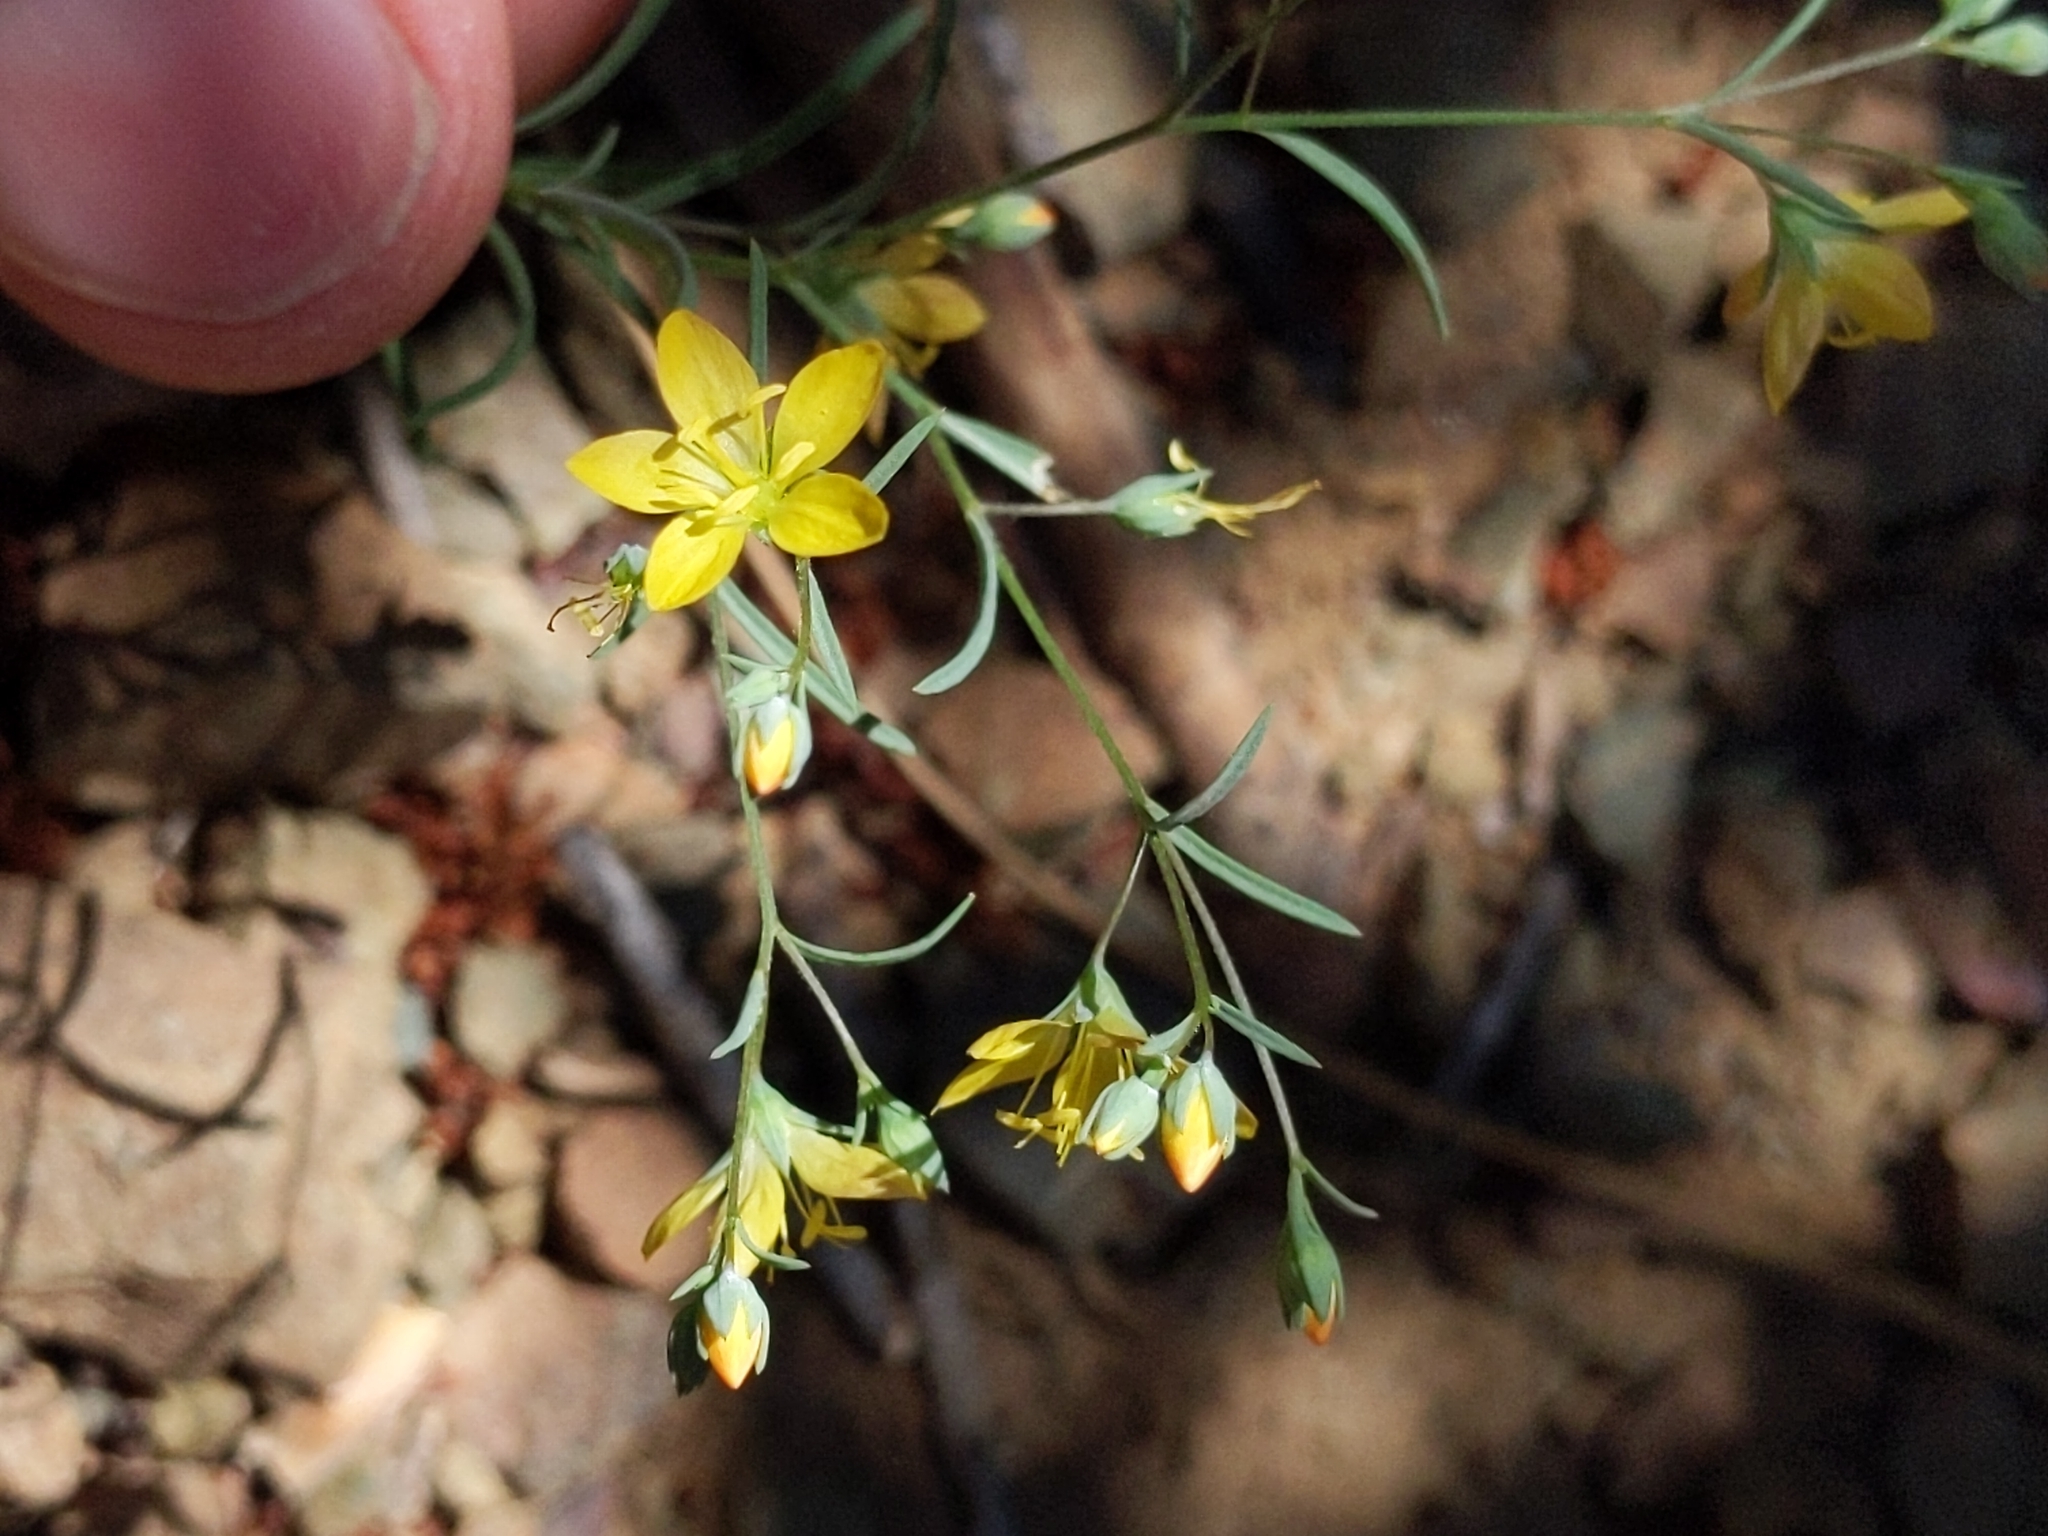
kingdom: Plantae
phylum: Tracheophyta
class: Magnoliopsida
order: Malpighiales
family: Linaceae
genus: Hesperolinon
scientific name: Hesperolinon breweri
